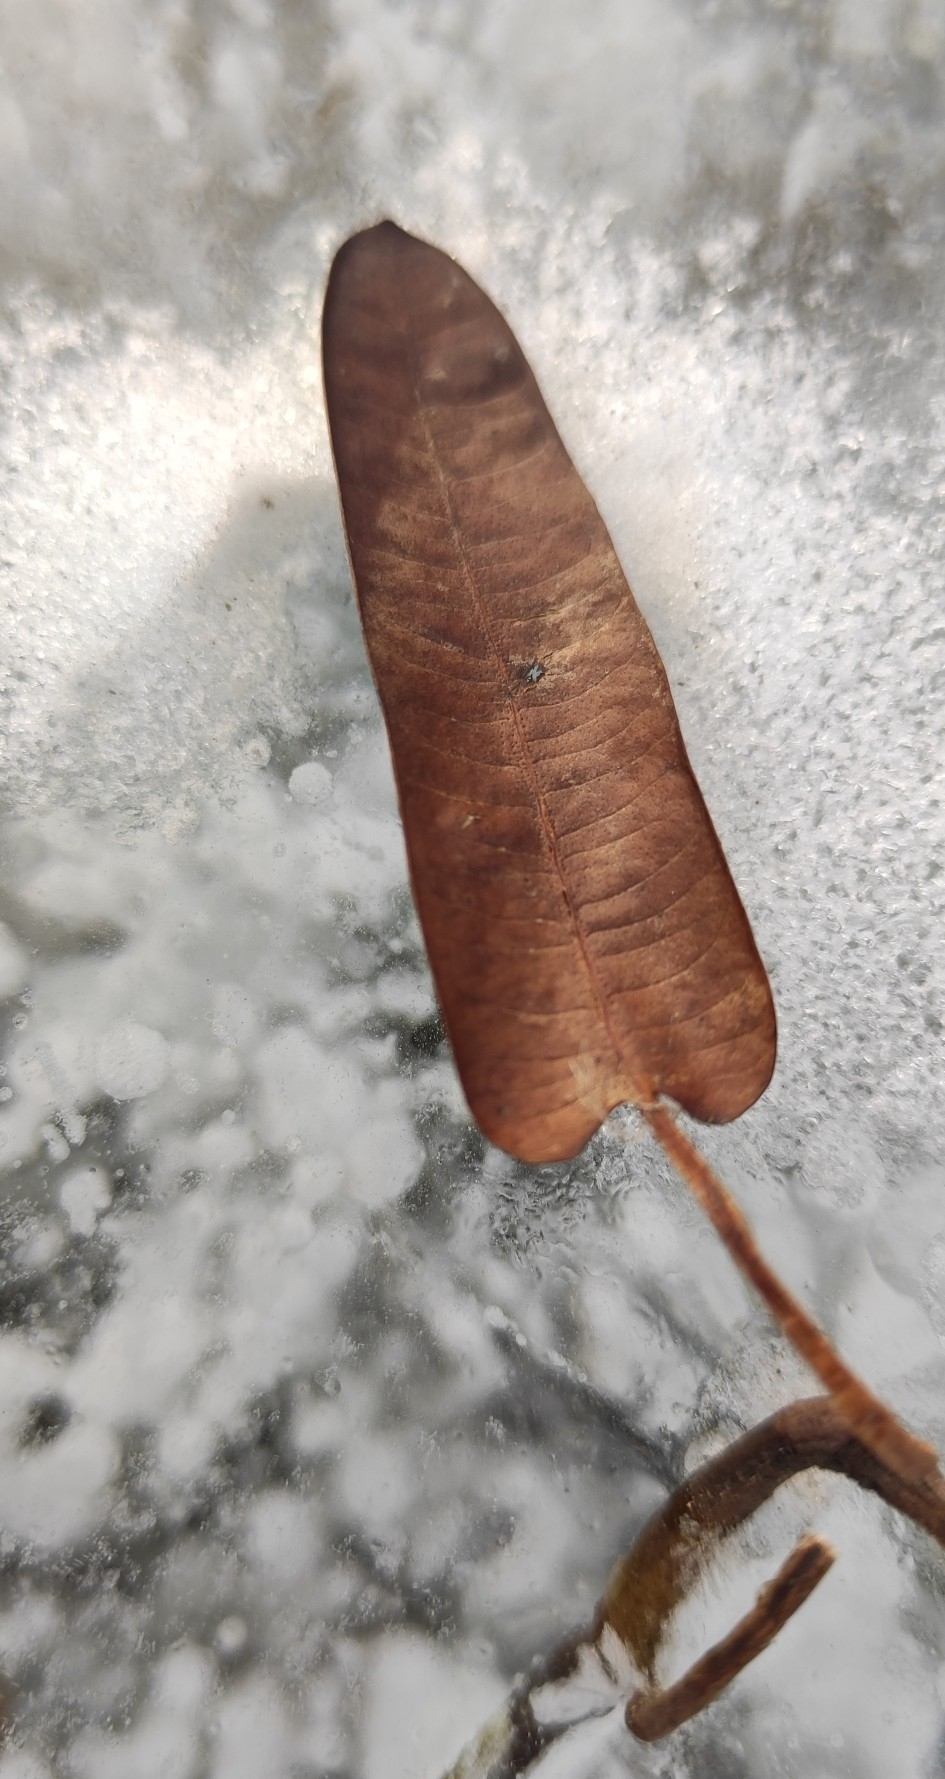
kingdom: Plantae
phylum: Tracheophyta
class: Magnoliopsida
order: Caryophyllales
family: Polygonaceae
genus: Persicaria
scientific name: Persicaria amphibia
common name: Amphibious bistort
